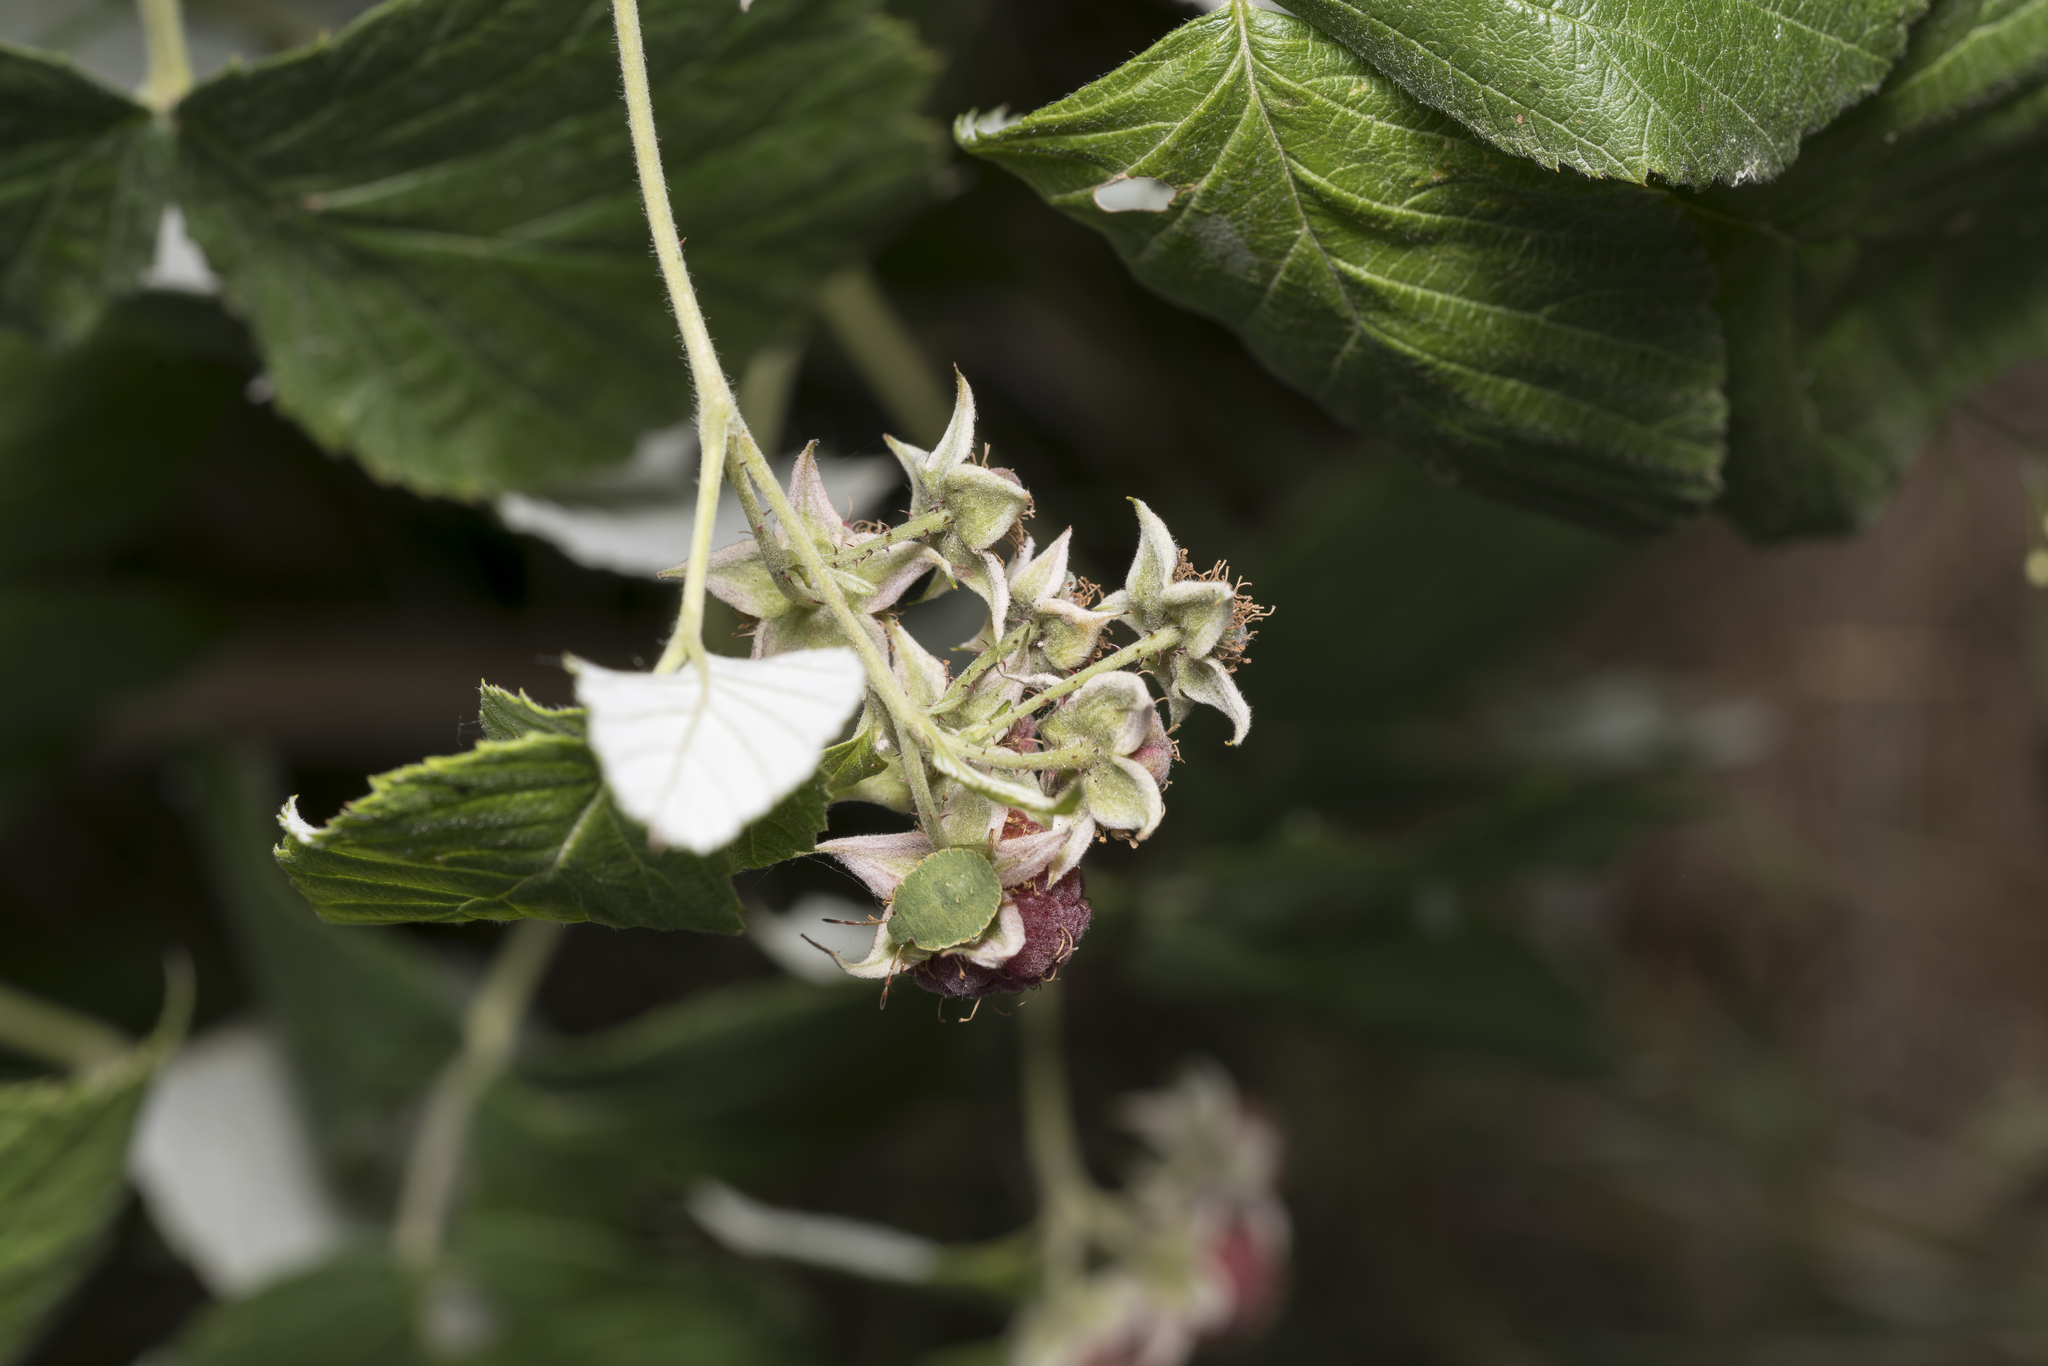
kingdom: Plantae
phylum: Tracheophyta
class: Magnoliopsida
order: Rosales
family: Rosaceae
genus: Rubus
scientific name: Rubus idaeus
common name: Raspberry
